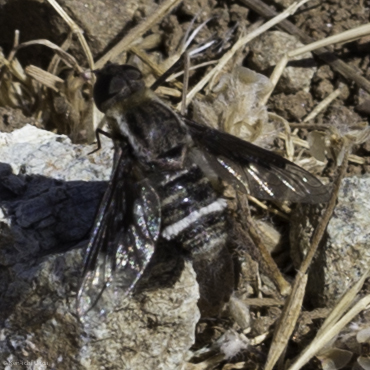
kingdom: Animalia
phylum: Arthropoda
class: Insecta
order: Diptera
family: Bombyliidae
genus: Hemipenthes
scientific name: Hemipenthes lepidotus
